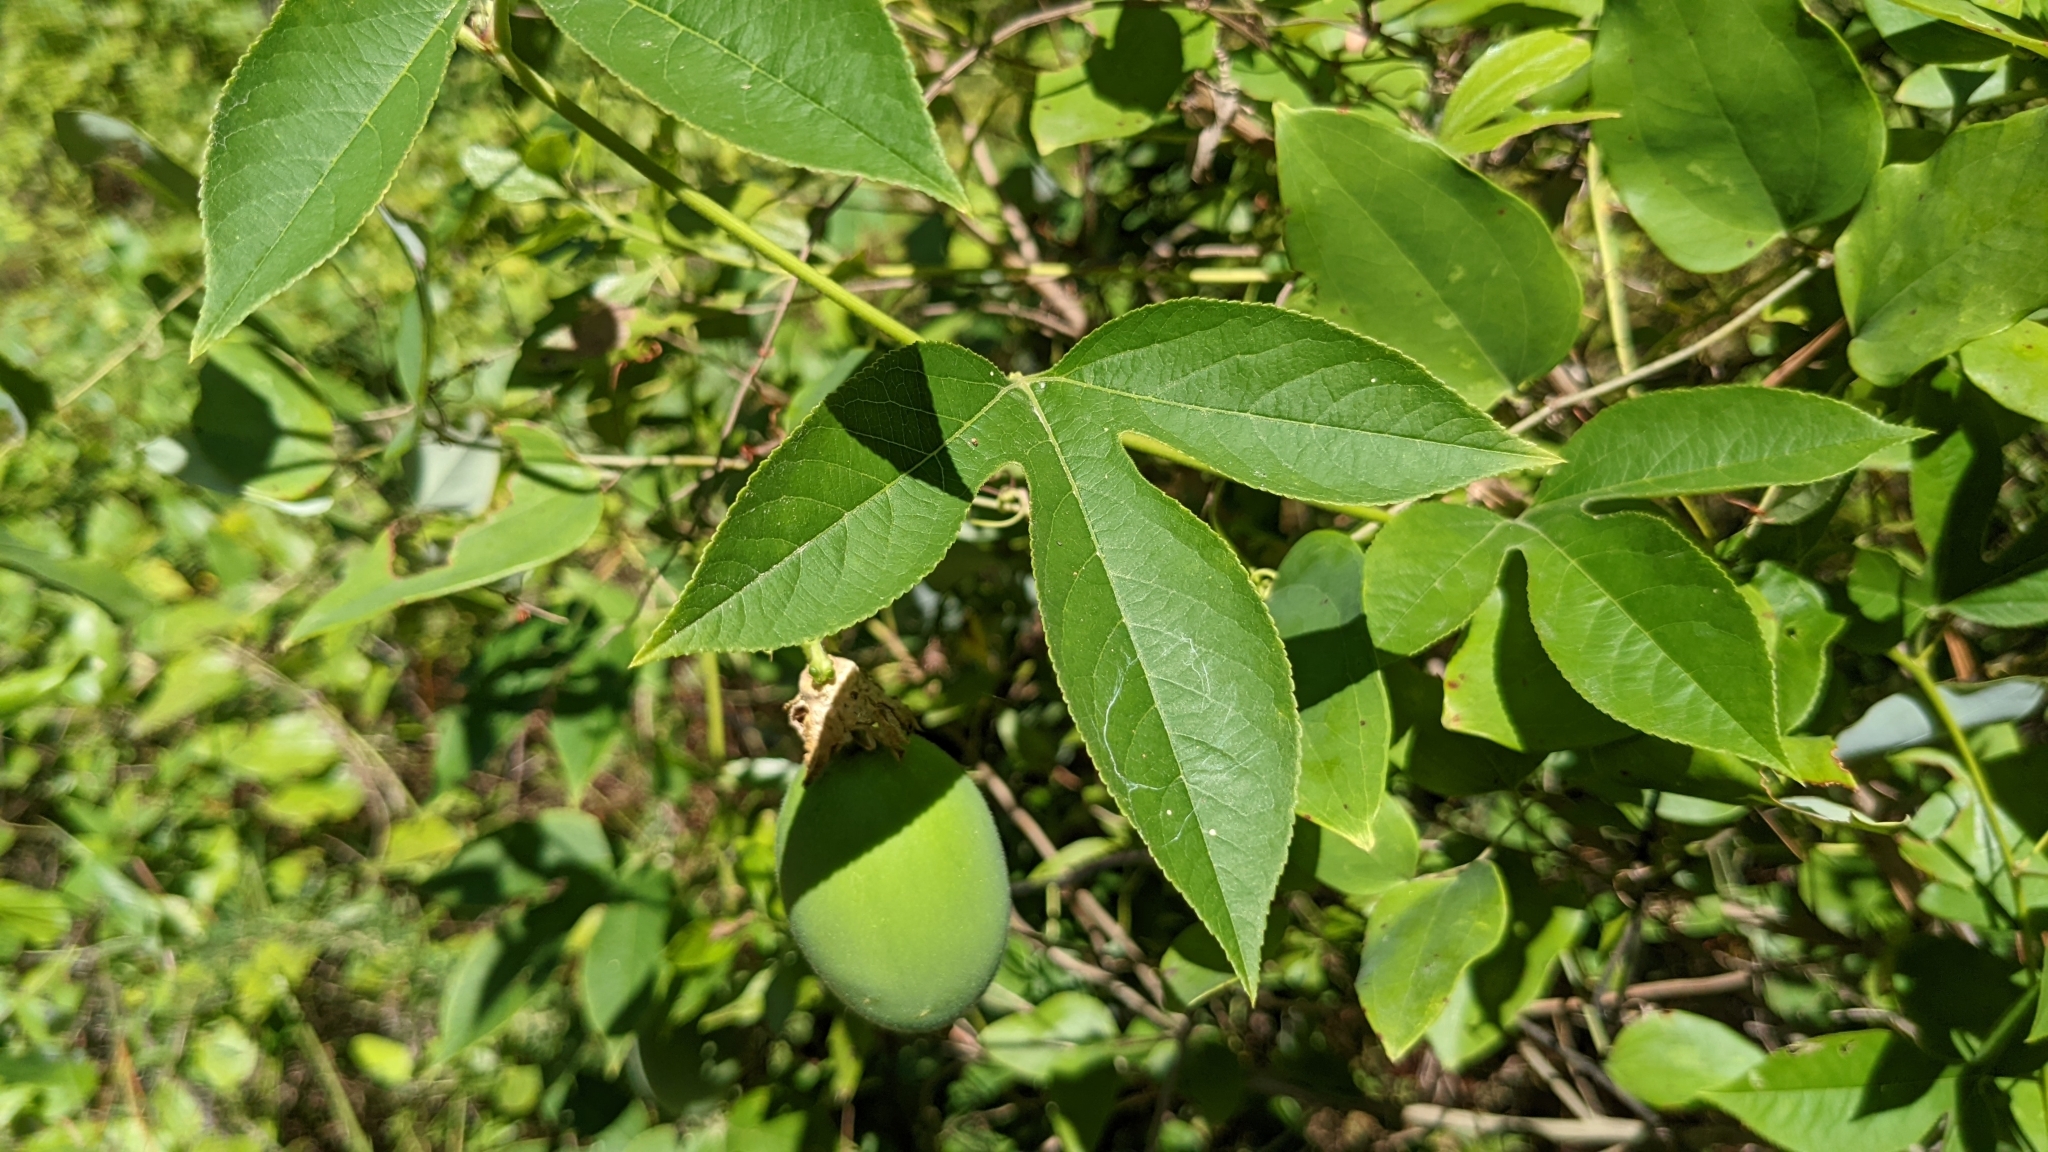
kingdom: Plantae
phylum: Tracheophyta
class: Magnoliopsida
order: Malpighiales
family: Passifloraceae
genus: Passiflora
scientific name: Passiflora incarnata
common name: Apricot-vine
